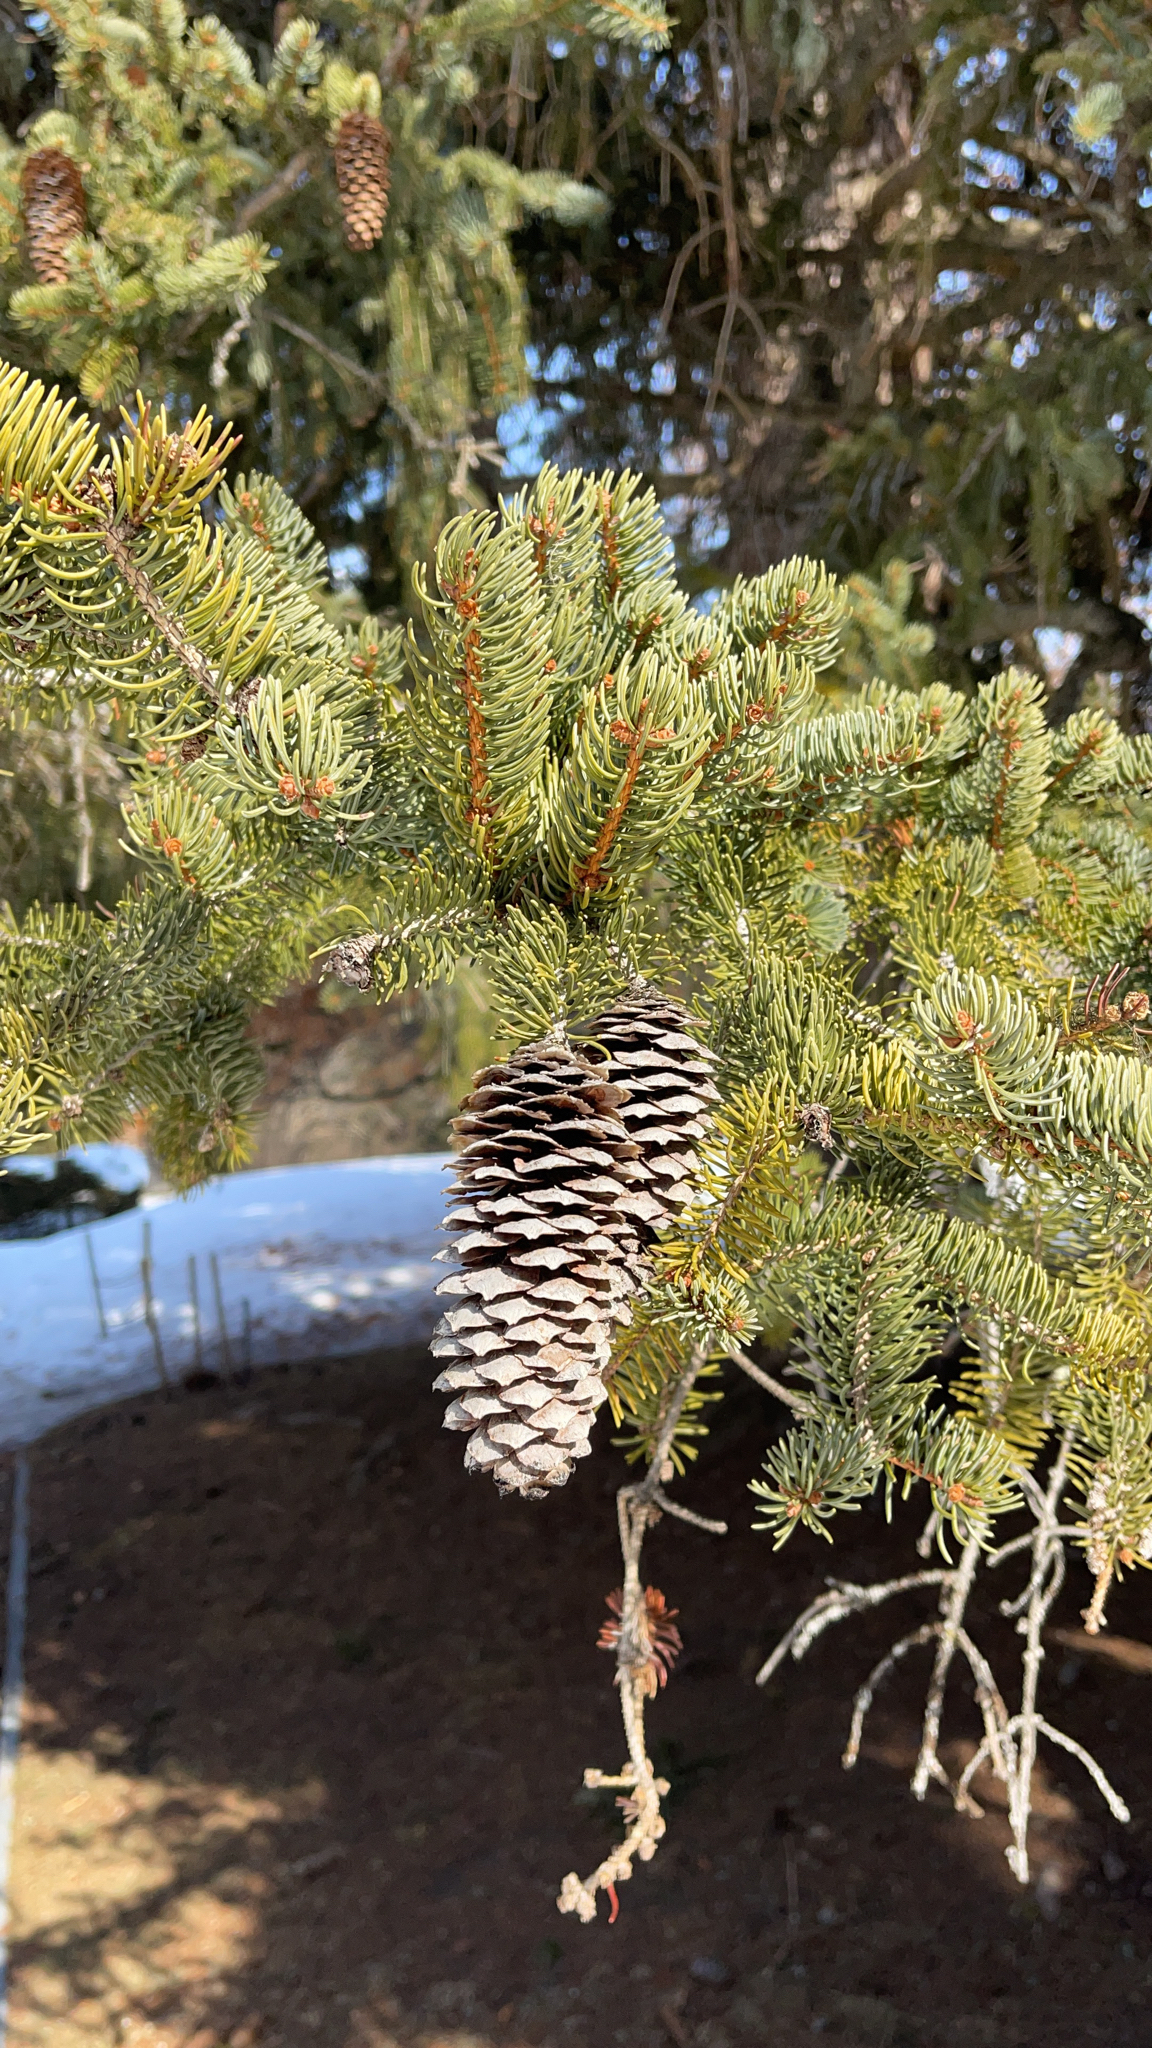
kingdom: Plantae
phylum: Tracheophyta
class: Pinopsida
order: Pinales
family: Pinaceae
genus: Picea
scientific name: Picea abies
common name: Norway spruce
